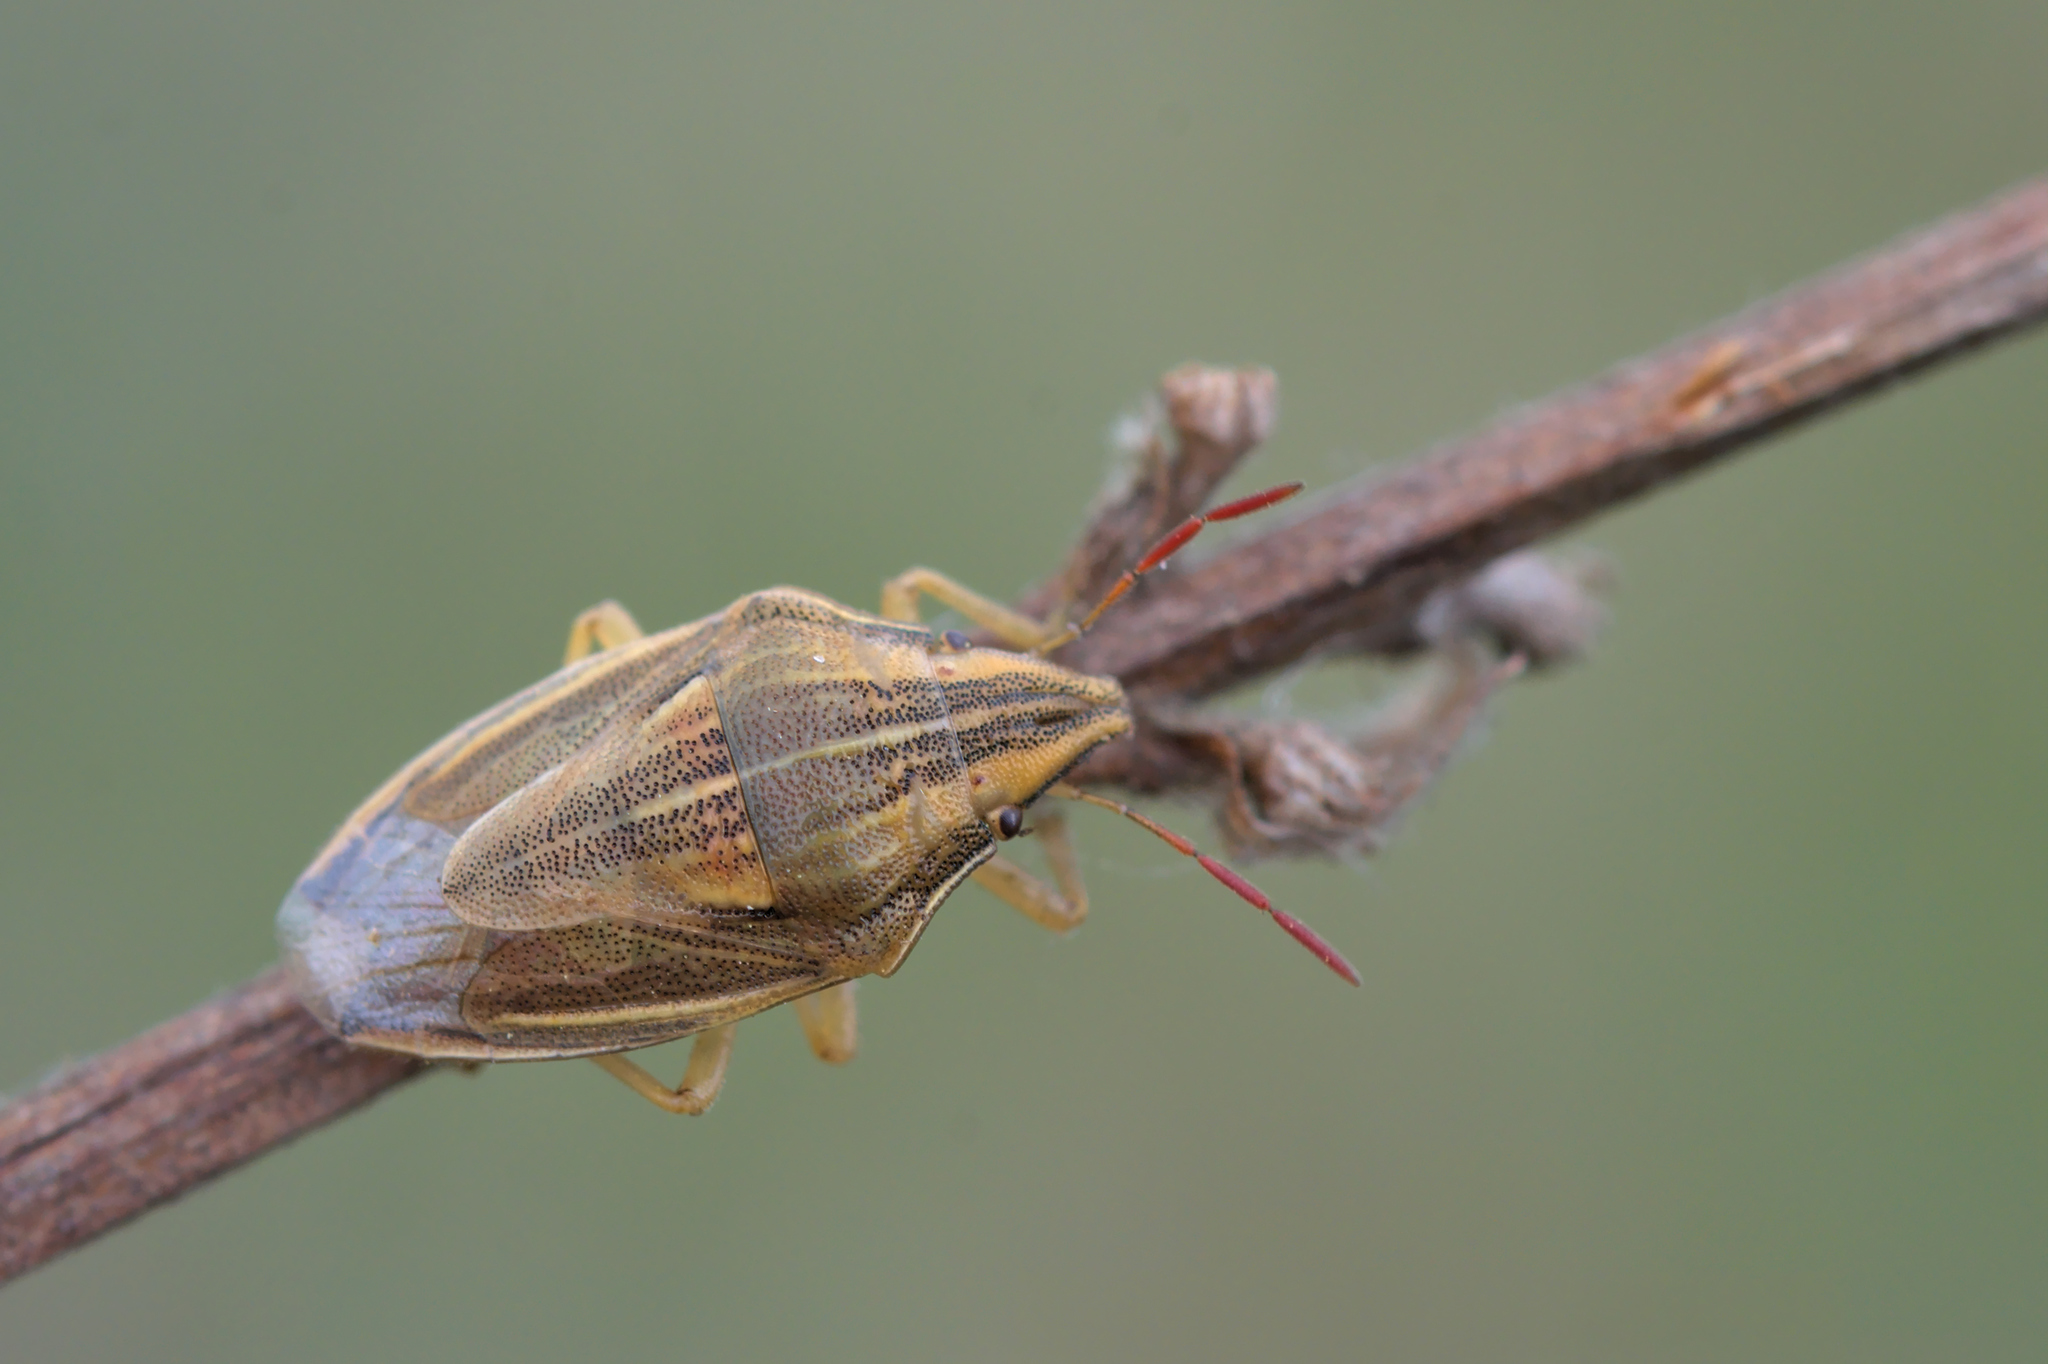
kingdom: Animalia
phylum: Arthropoda
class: Insecta
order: Hemiptera
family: Pentatomidae
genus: Aelia
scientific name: Aelia acuminata
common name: Bishop's mitre
